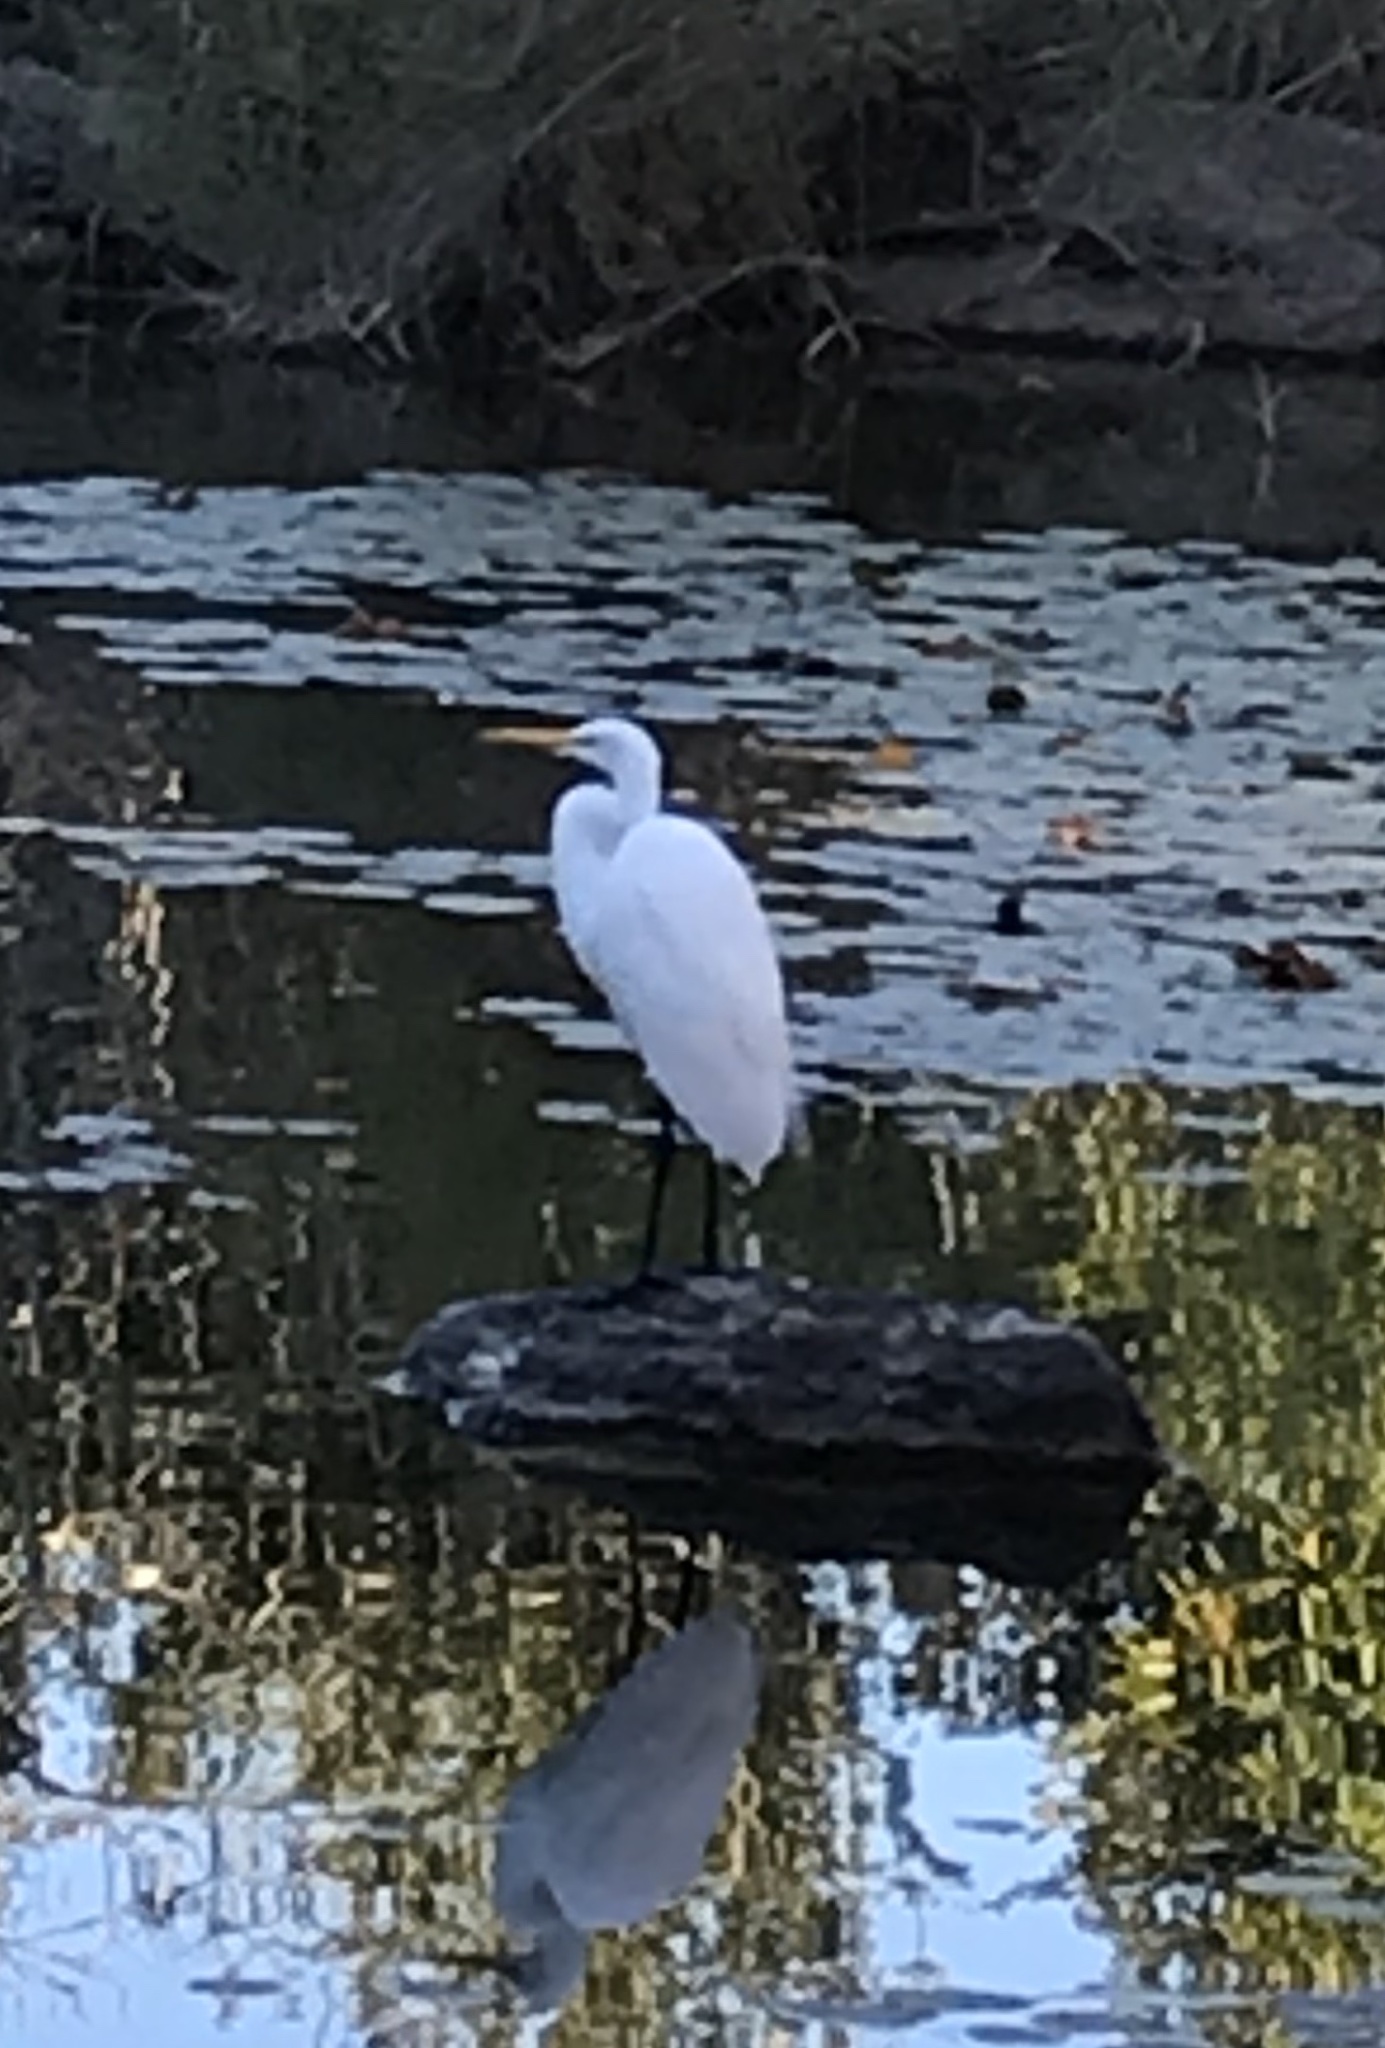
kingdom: Animalia
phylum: Chordata
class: Aves
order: Pelecaniformes
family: Ardeidae
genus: Ardea
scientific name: Ardea alba
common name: Great egret
